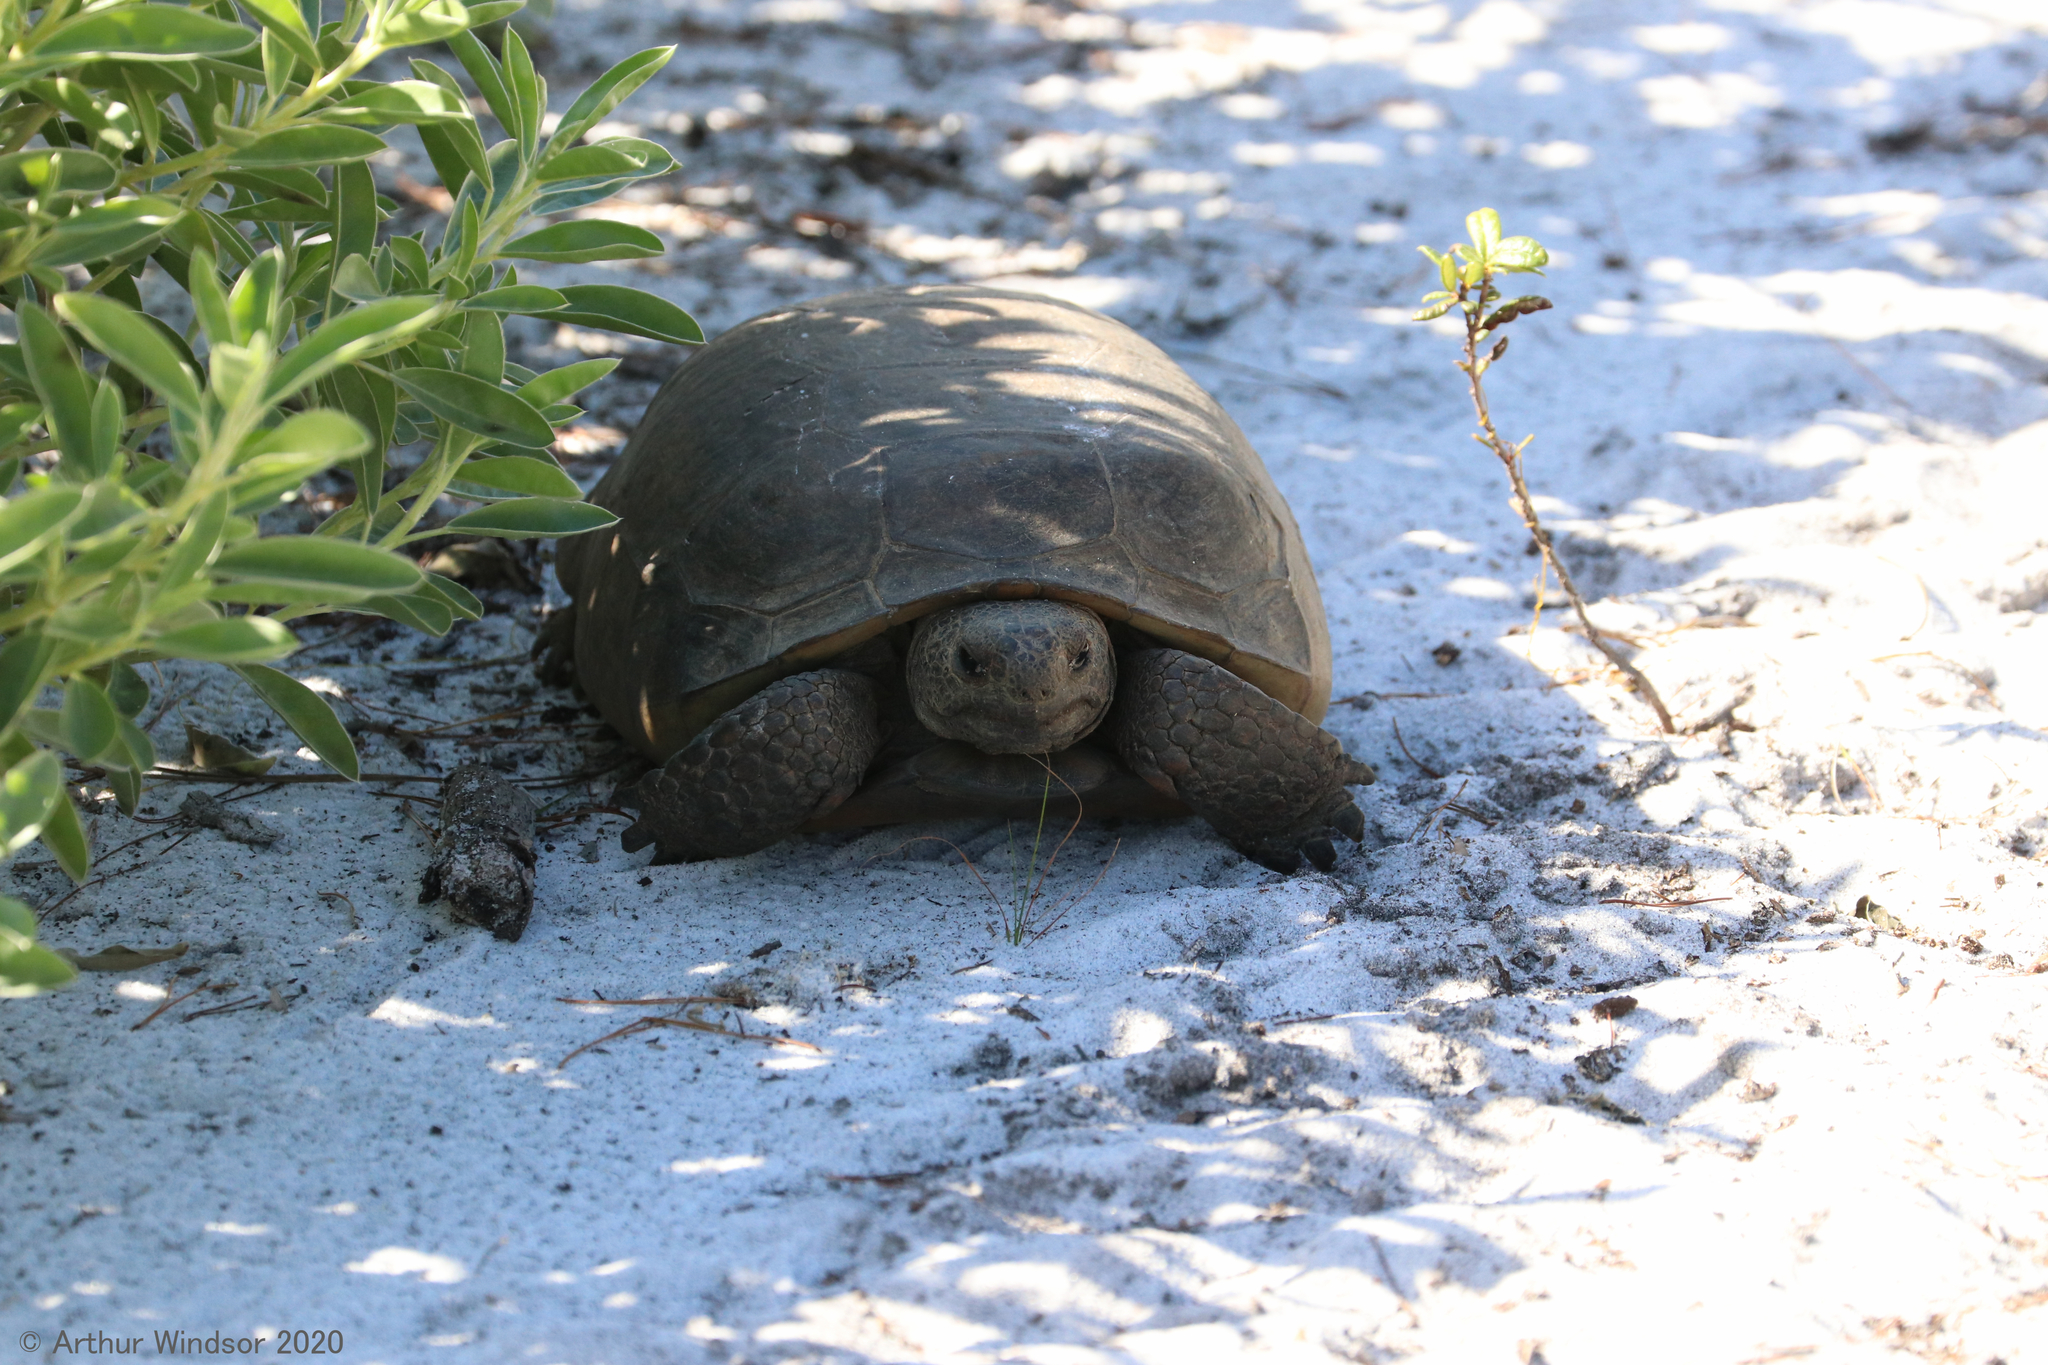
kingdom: Animalia
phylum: Chordata
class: Testudines
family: Testudinidae
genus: Gopherus
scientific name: Gopherus polyphemus
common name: Florida gopher tortoise
